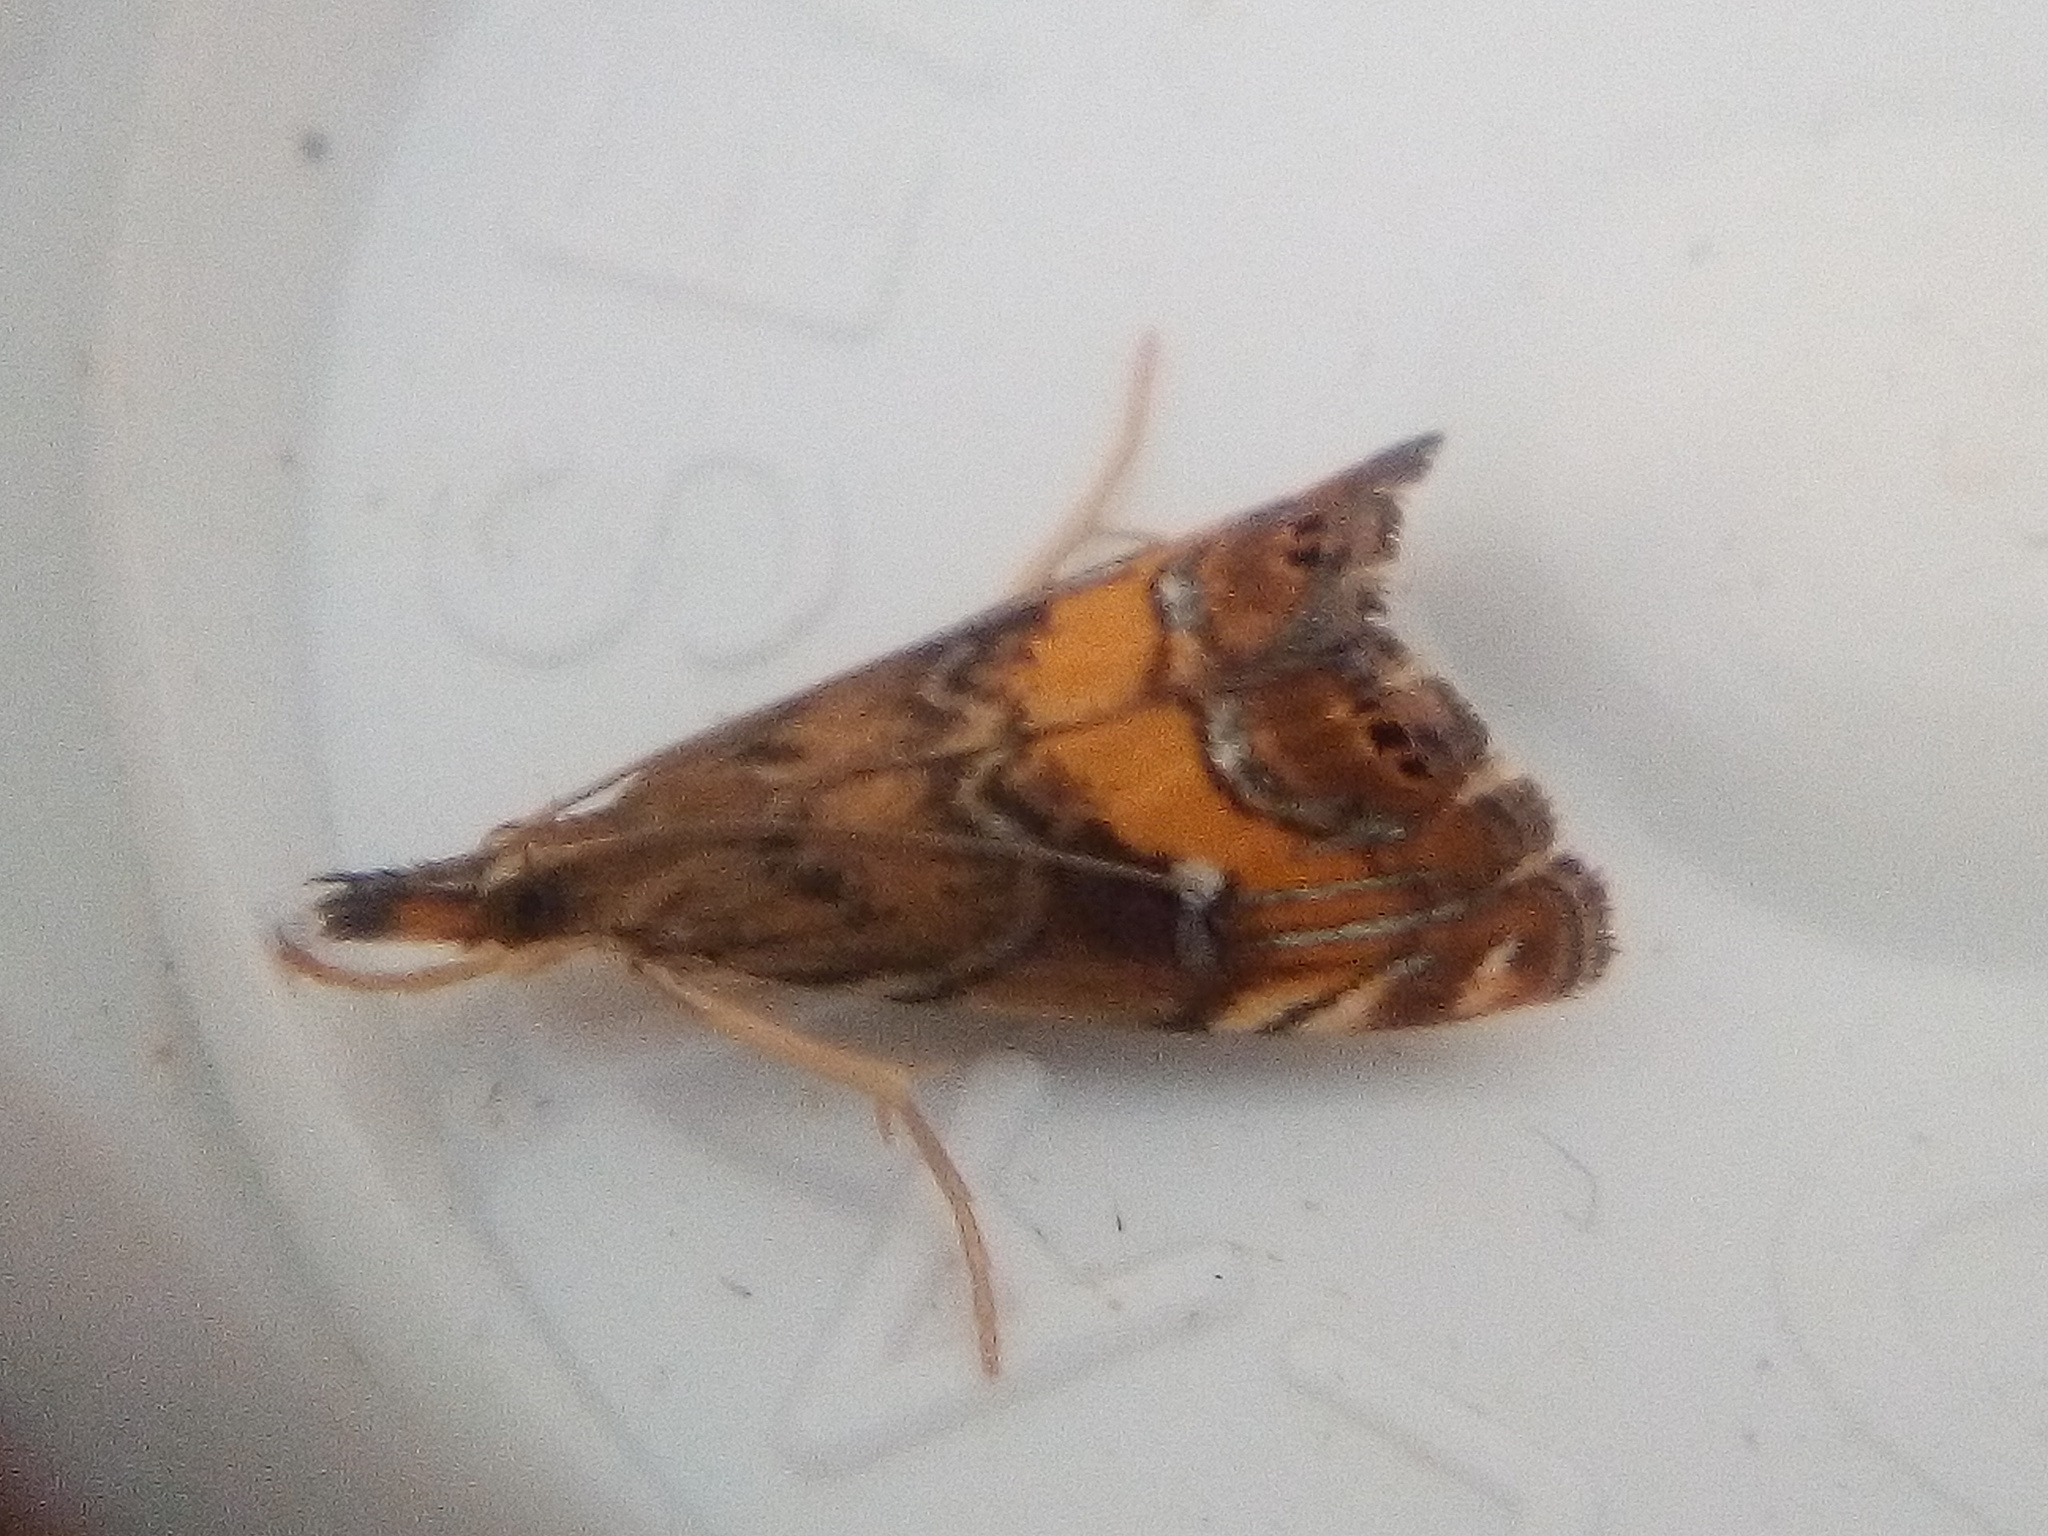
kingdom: Animalia
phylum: Arthropoda
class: Insecta
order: Lepidoptera
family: Crambidae
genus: Glaucocharis
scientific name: Glaucocharis chrysochyta
